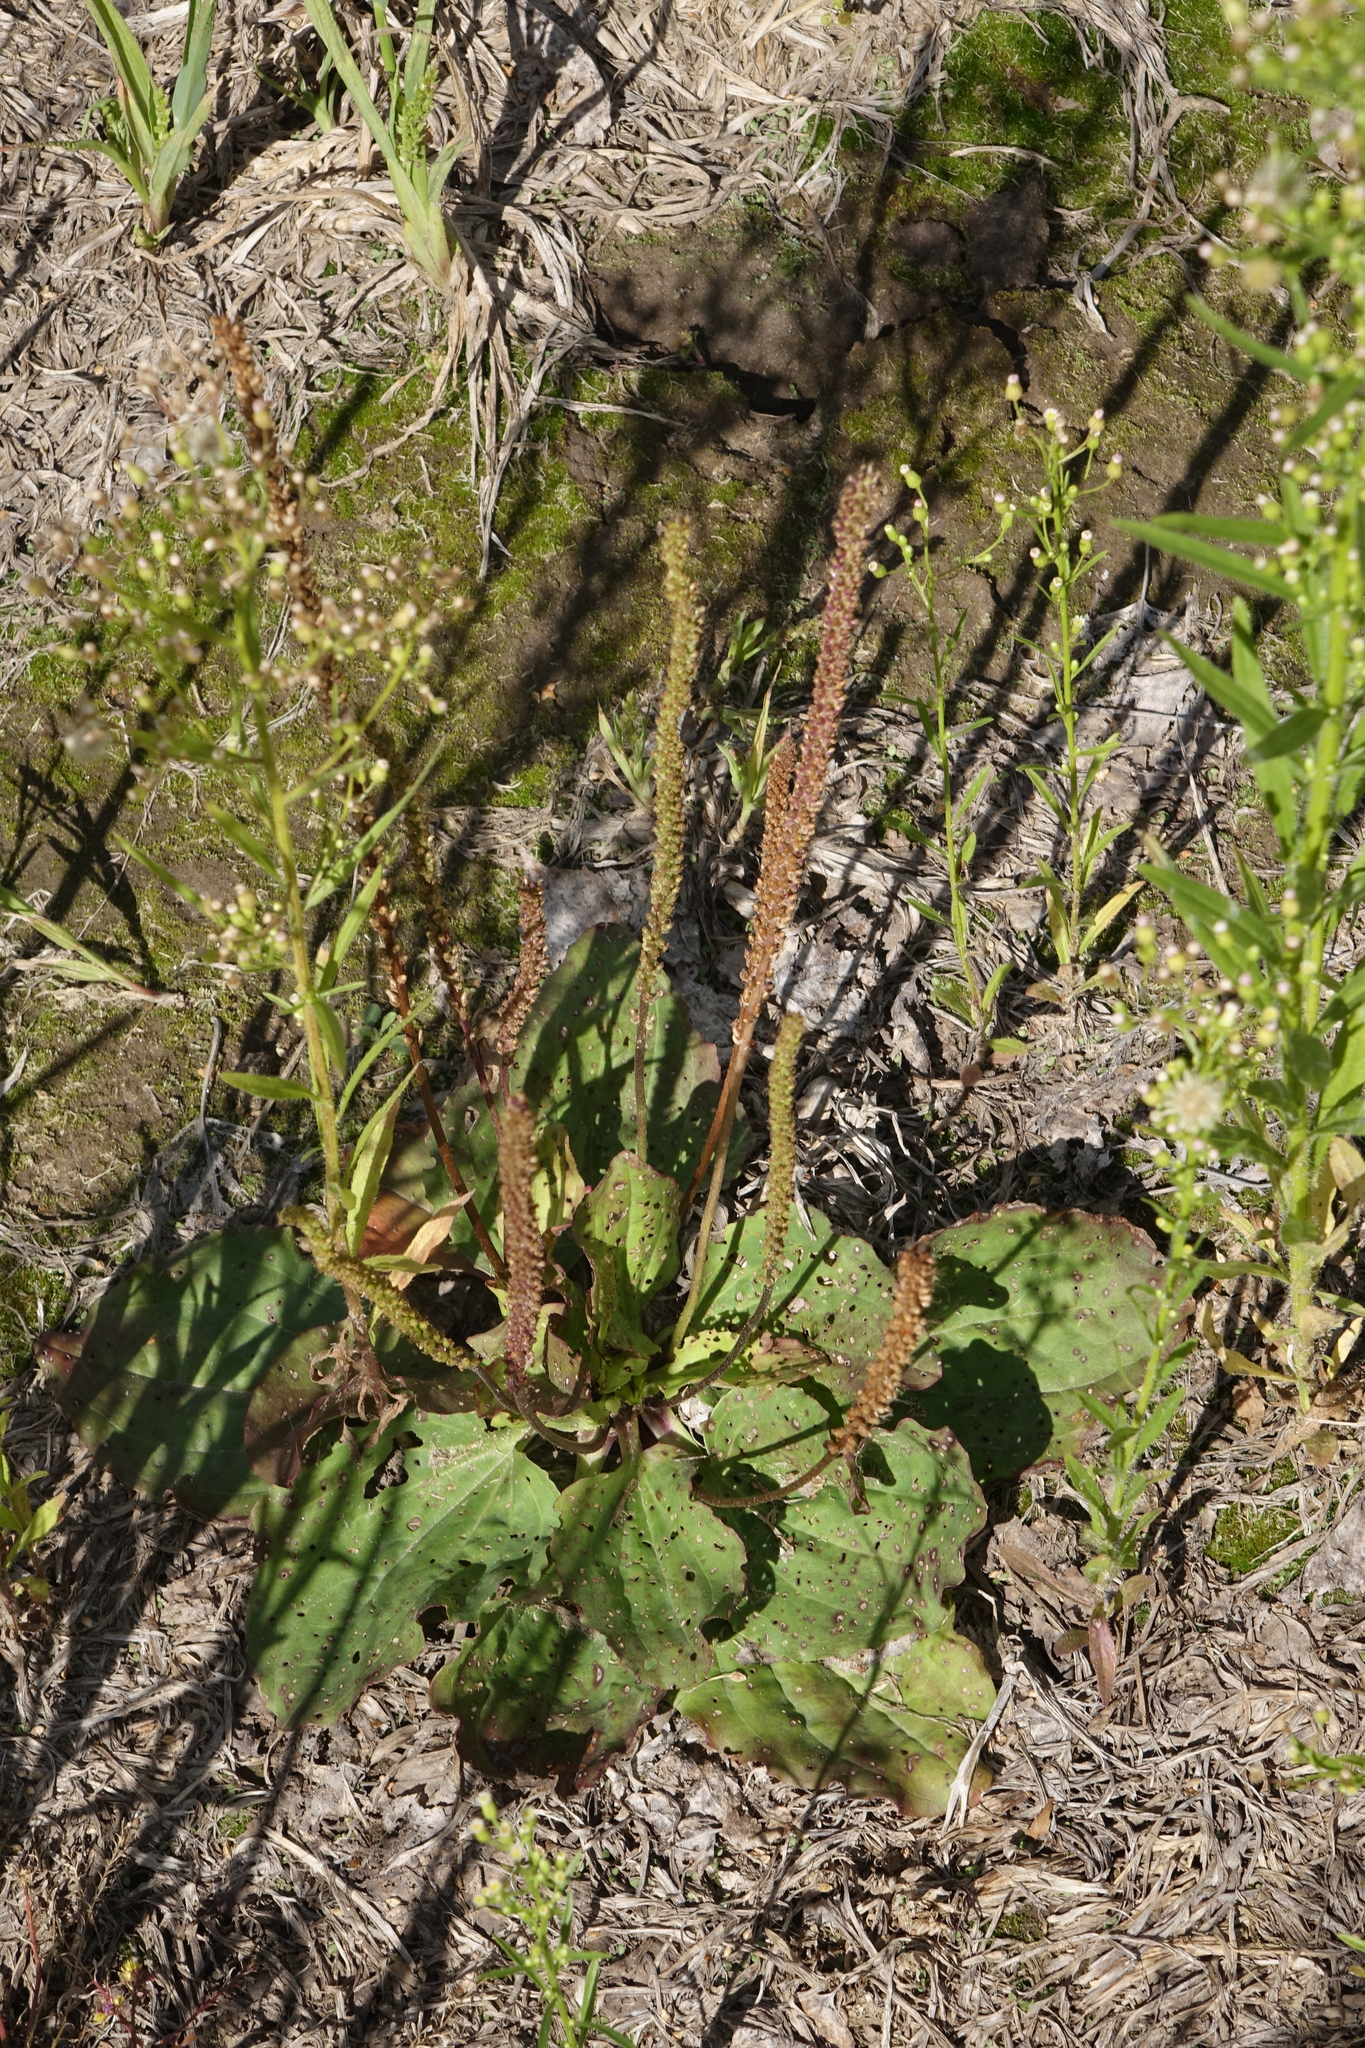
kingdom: Plantae
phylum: Tracheophyta
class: Magnoliopsida
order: Lamiales
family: Plantaginaceae
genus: Plantago
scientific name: Plantago major
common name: Common plantain
